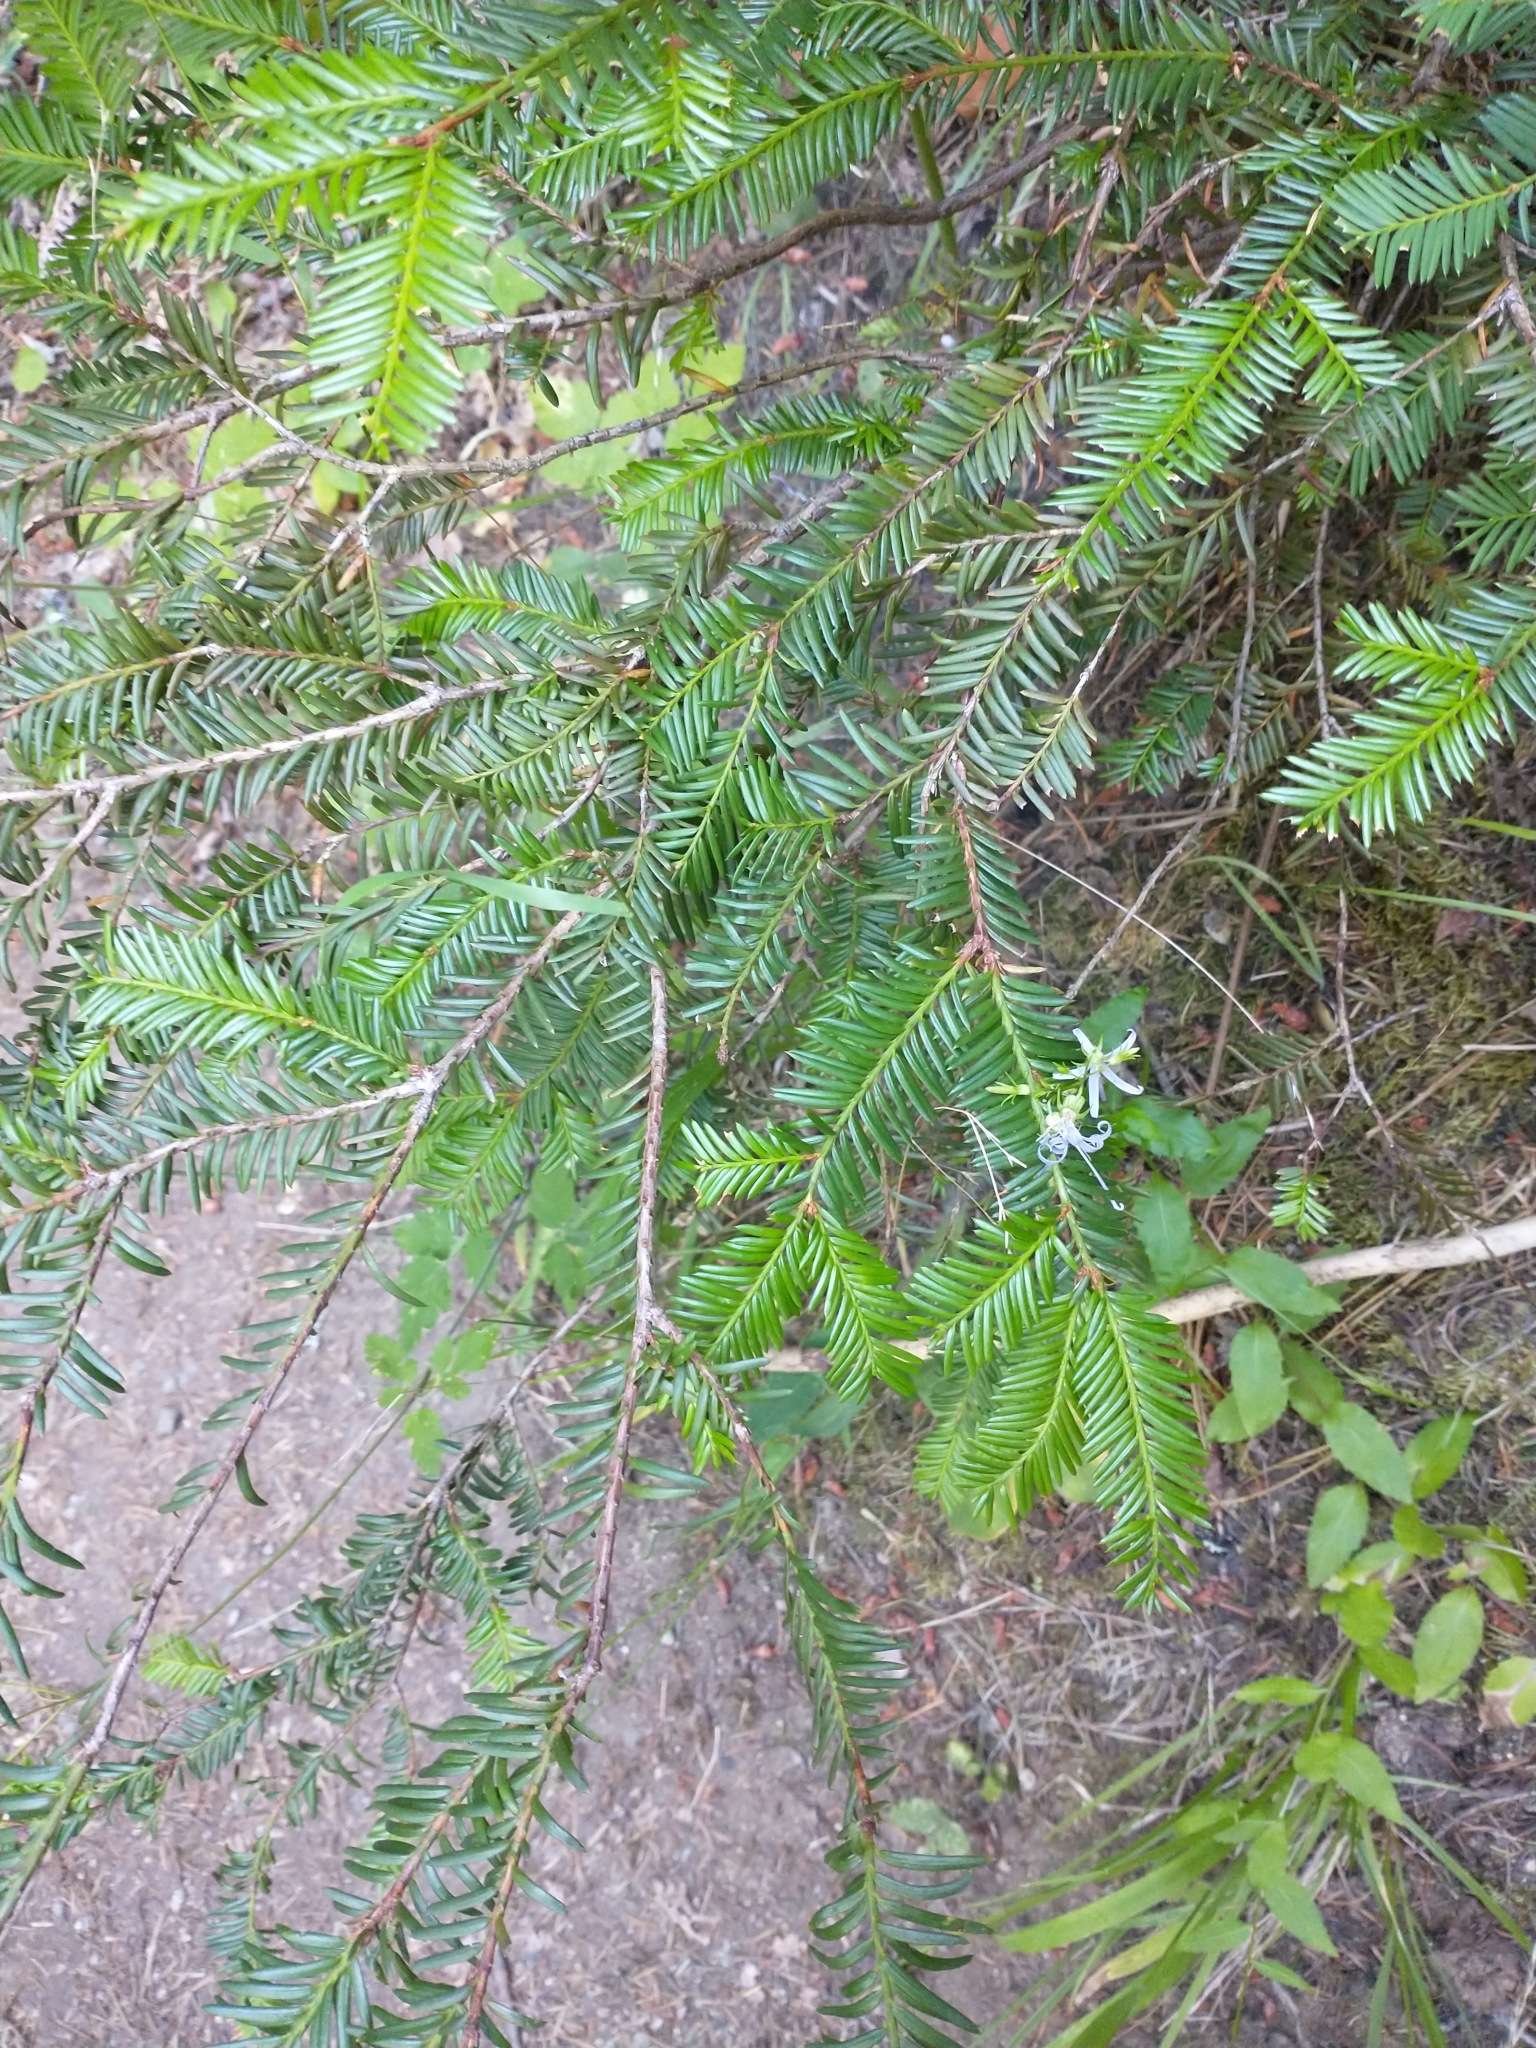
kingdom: Plantae
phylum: Tracheophyta
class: Pinopsida
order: Pinales
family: Taxaceae
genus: Taxus
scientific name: Taxus brevifolia
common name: Pacific yew
